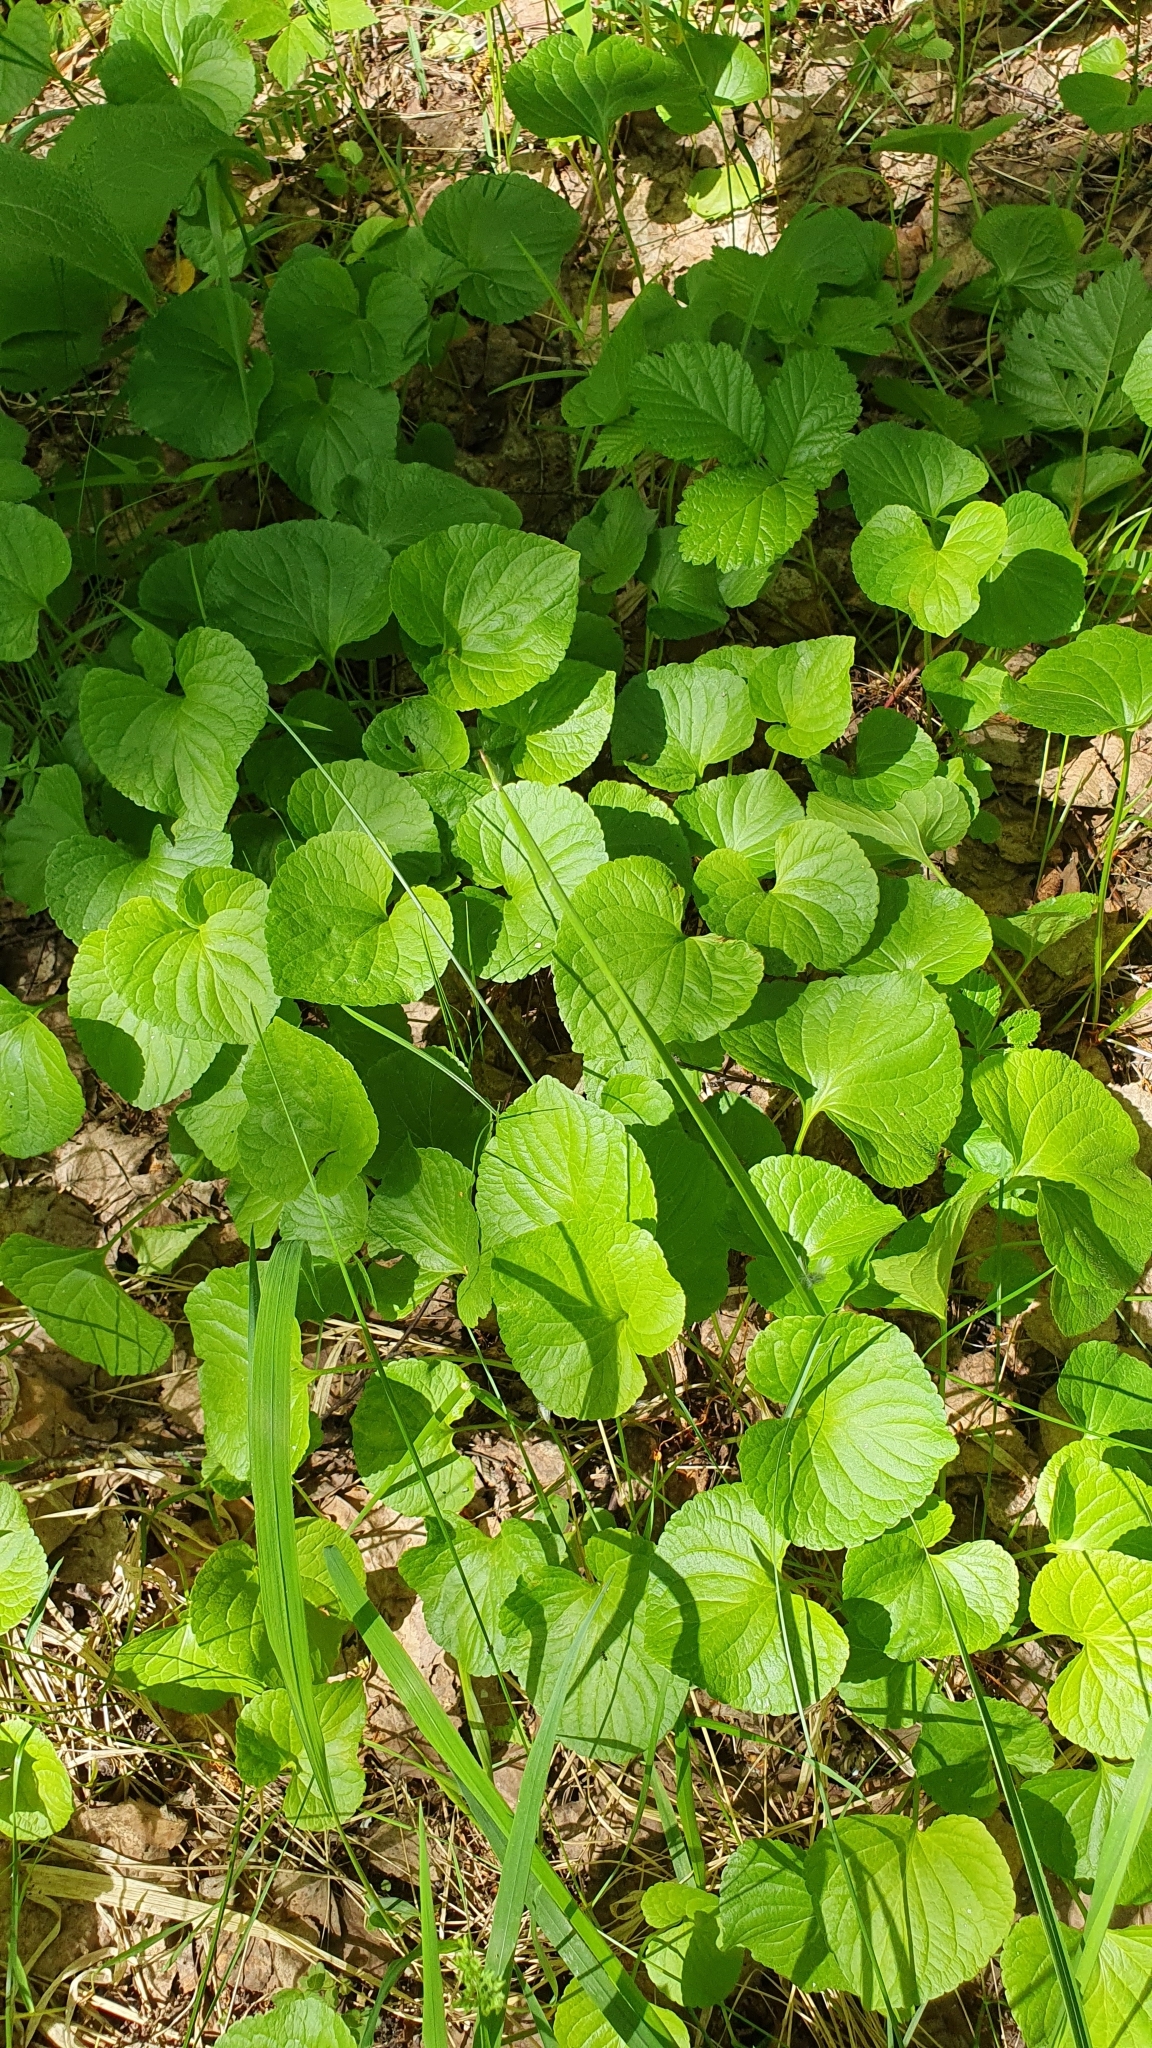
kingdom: Plantae
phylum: Tracheophyta
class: Magnoliopsida
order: Malpighiales
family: Violaceae
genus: Viola
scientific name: Viola mirabilis
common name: Wonder violet
